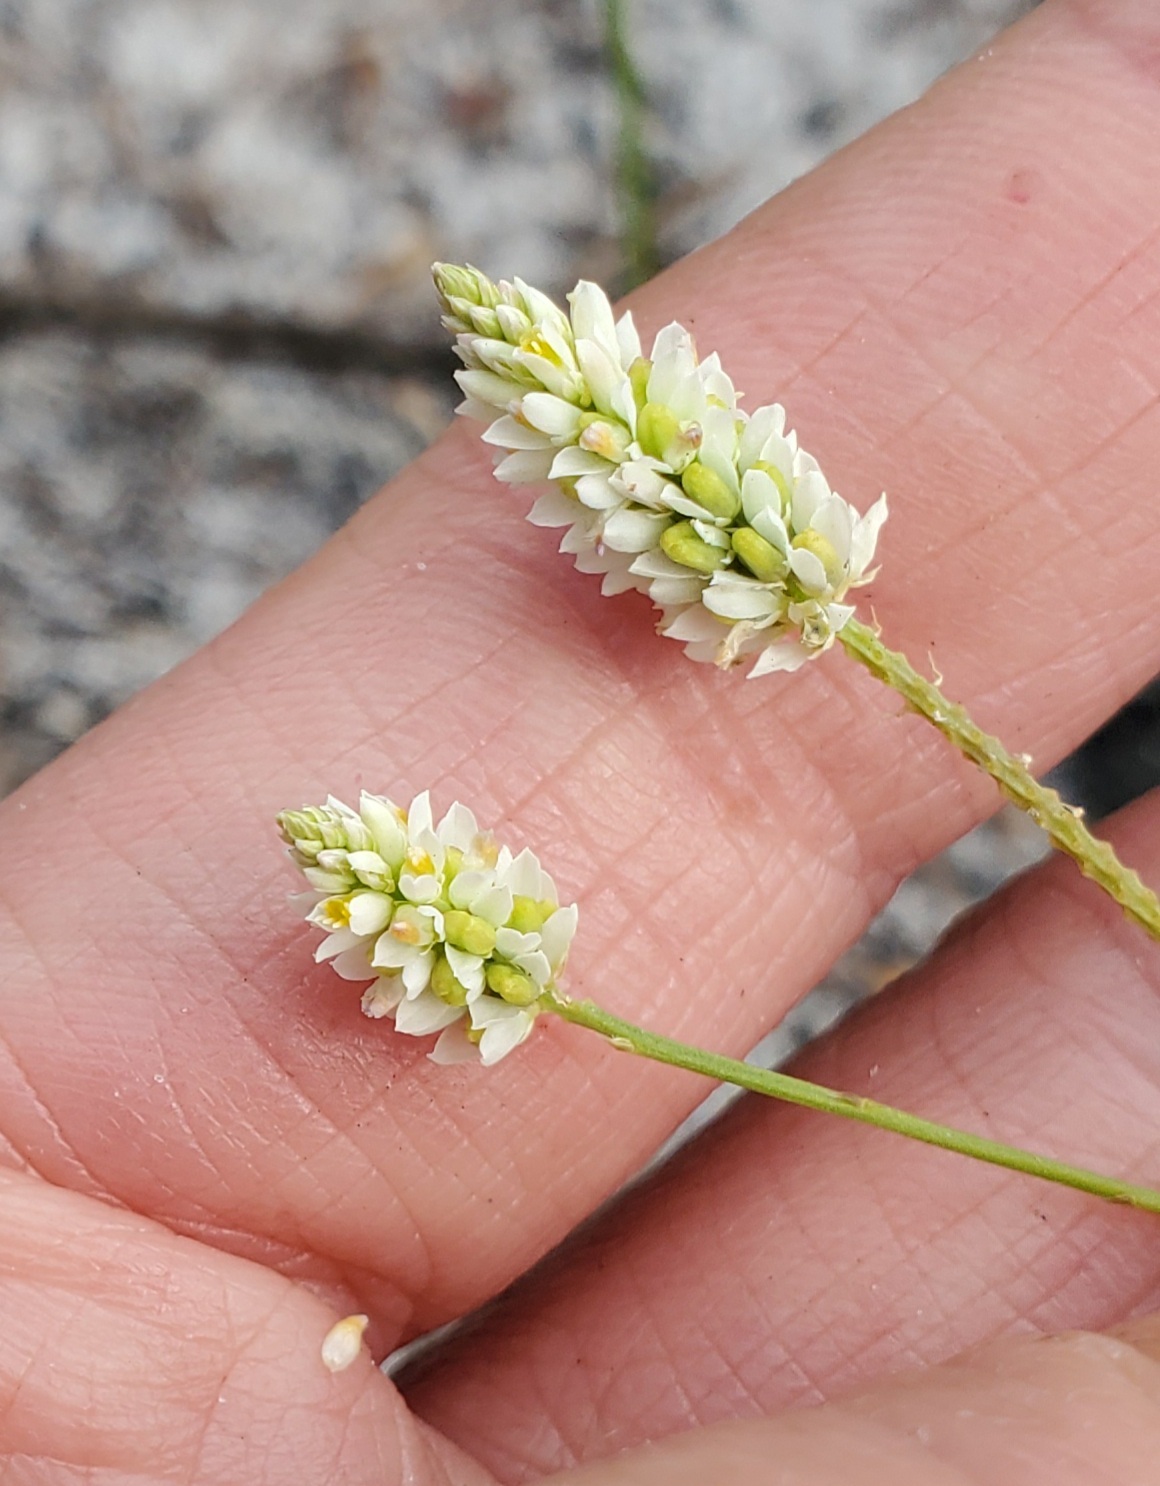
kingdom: Plantae
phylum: Tracheophyta
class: Magnoliopsida
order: Fabales
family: Polygalaceae
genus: Polygala
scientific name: Polygala setacea
